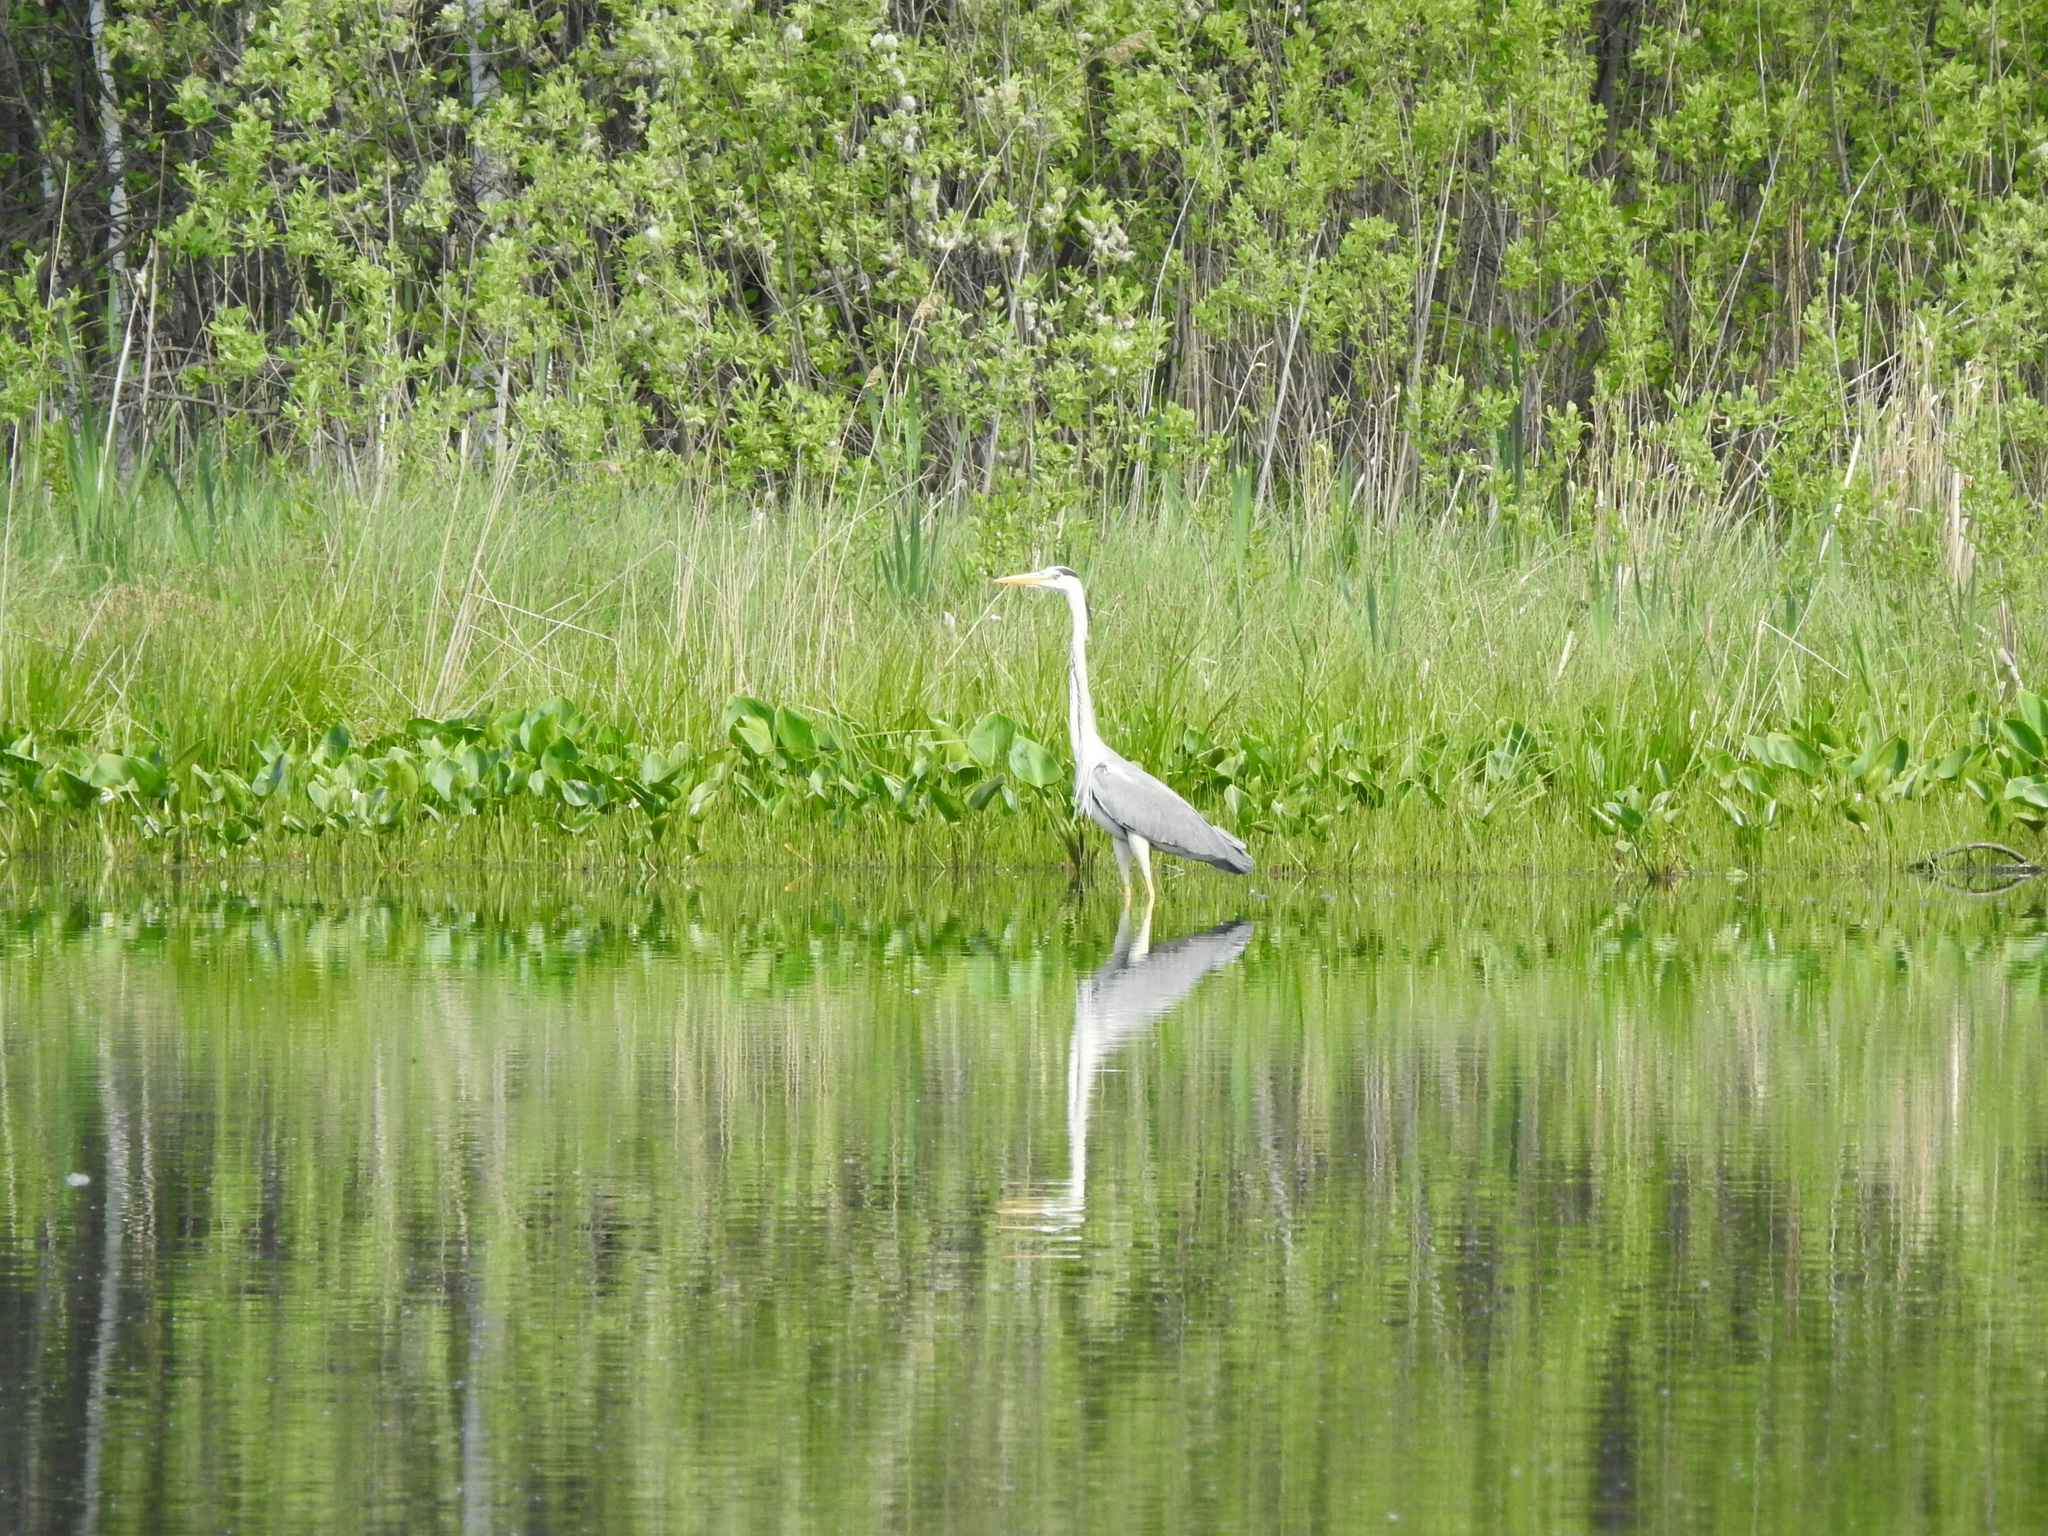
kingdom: Animalia
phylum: Chordata
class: Aves
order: Pelecaniformes
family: Ardeidae
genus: Ardea
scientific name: Ardea cinerea
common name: Grey heron
